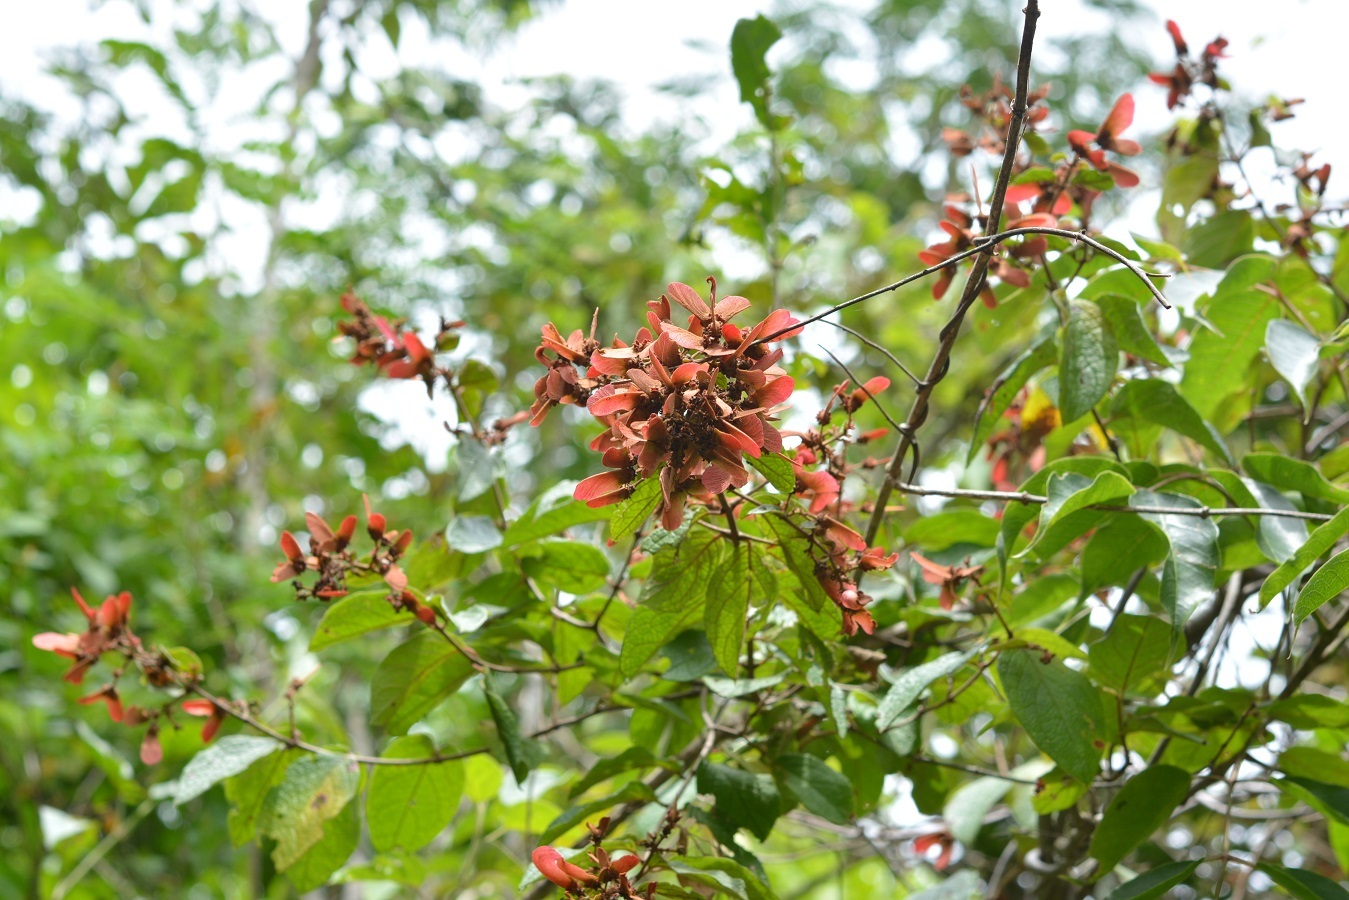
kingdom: Plantae
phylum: Tracheophyta
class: Magnoliopsida
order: Malpighiales
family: Malpighiaceae
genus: Heteropterys
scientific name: Heteropterys brachiata
